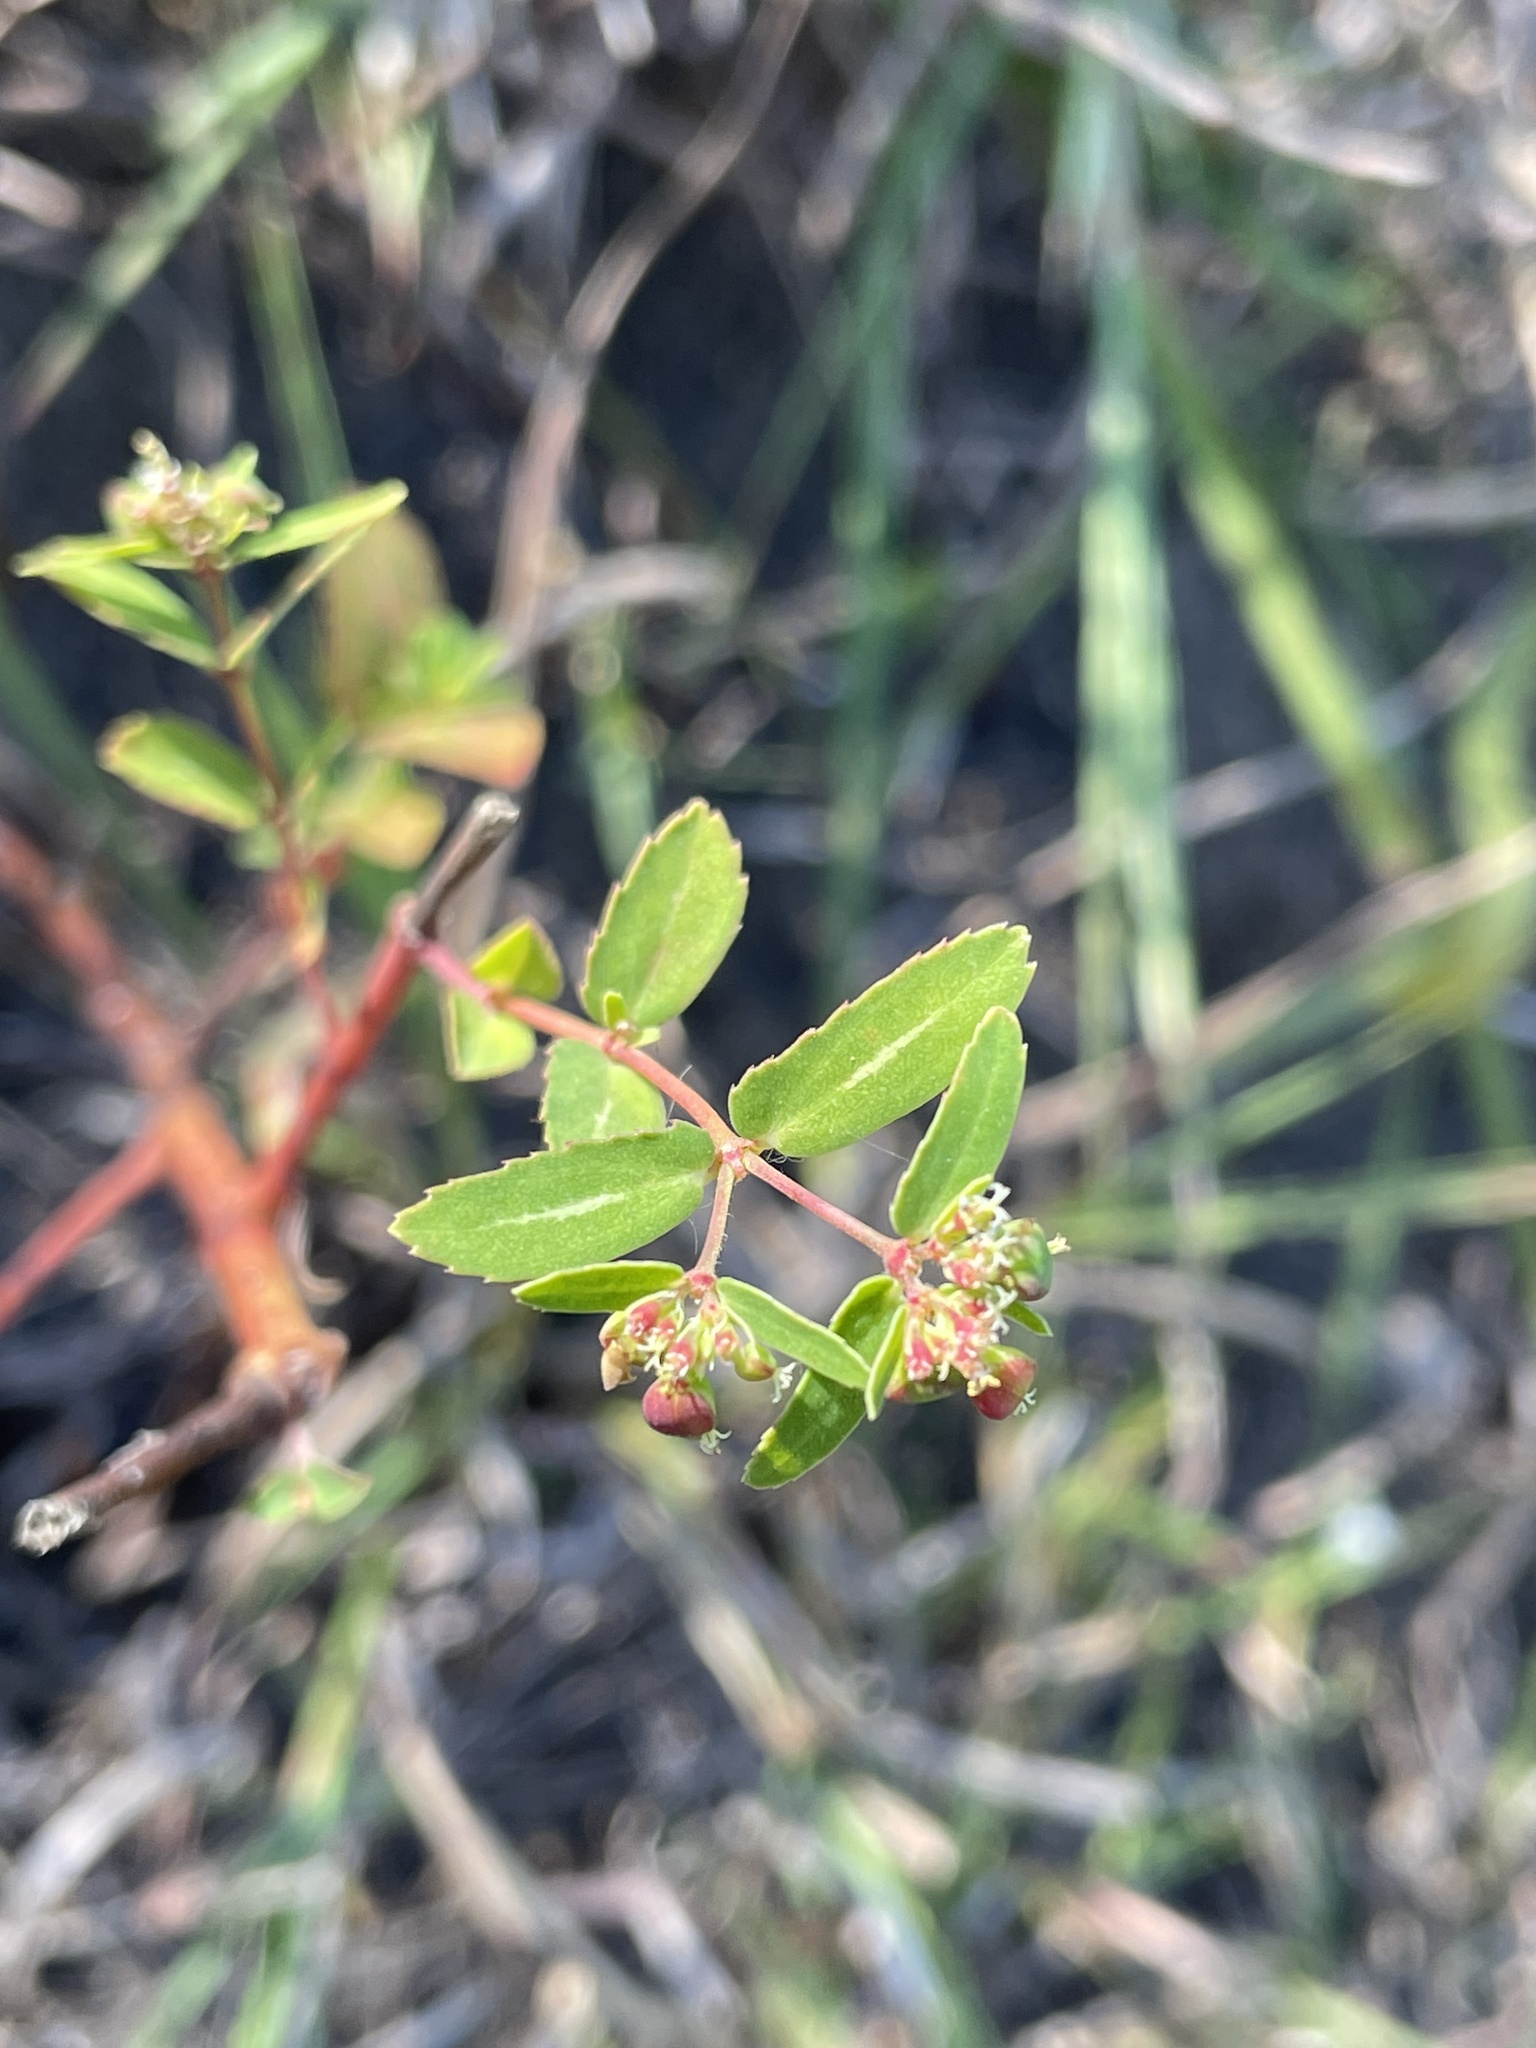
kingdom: Plantae
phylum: Tracheophyta
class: Magnoliopsida
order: Malpighiales
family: Euphorbiaceae
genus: Euphorbia
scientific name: Euphorbia nutans
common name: Eyebane
